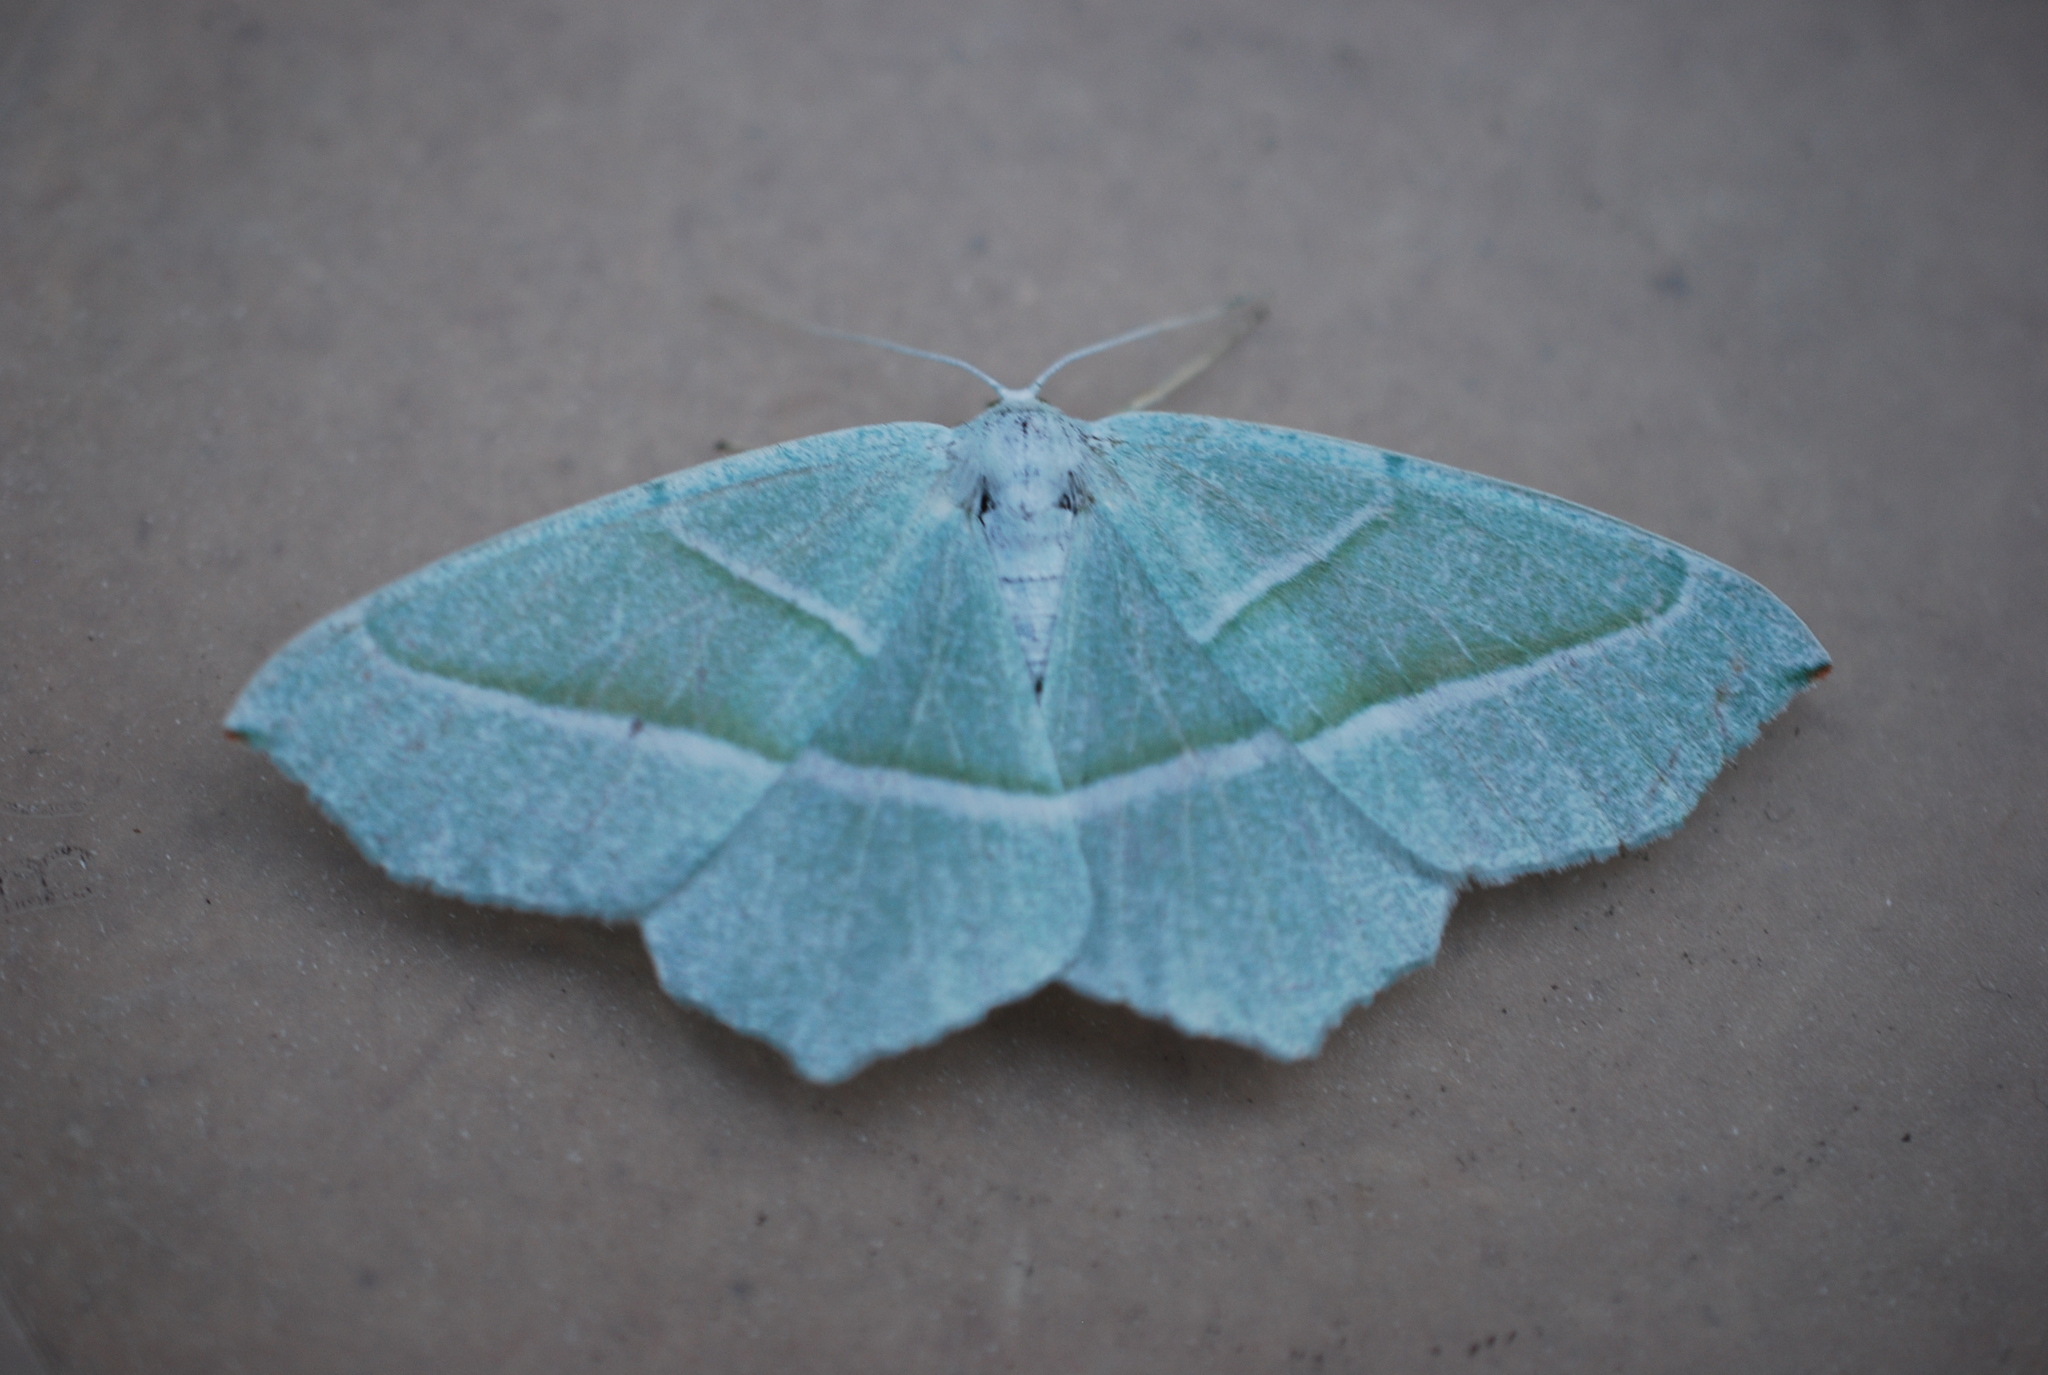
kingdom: Animalia
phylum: Arthropoda
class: Insecta
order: Lepidoptera
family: Geometridae
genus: Campaea
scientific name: Campaea margaritaria
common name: Light emerald
